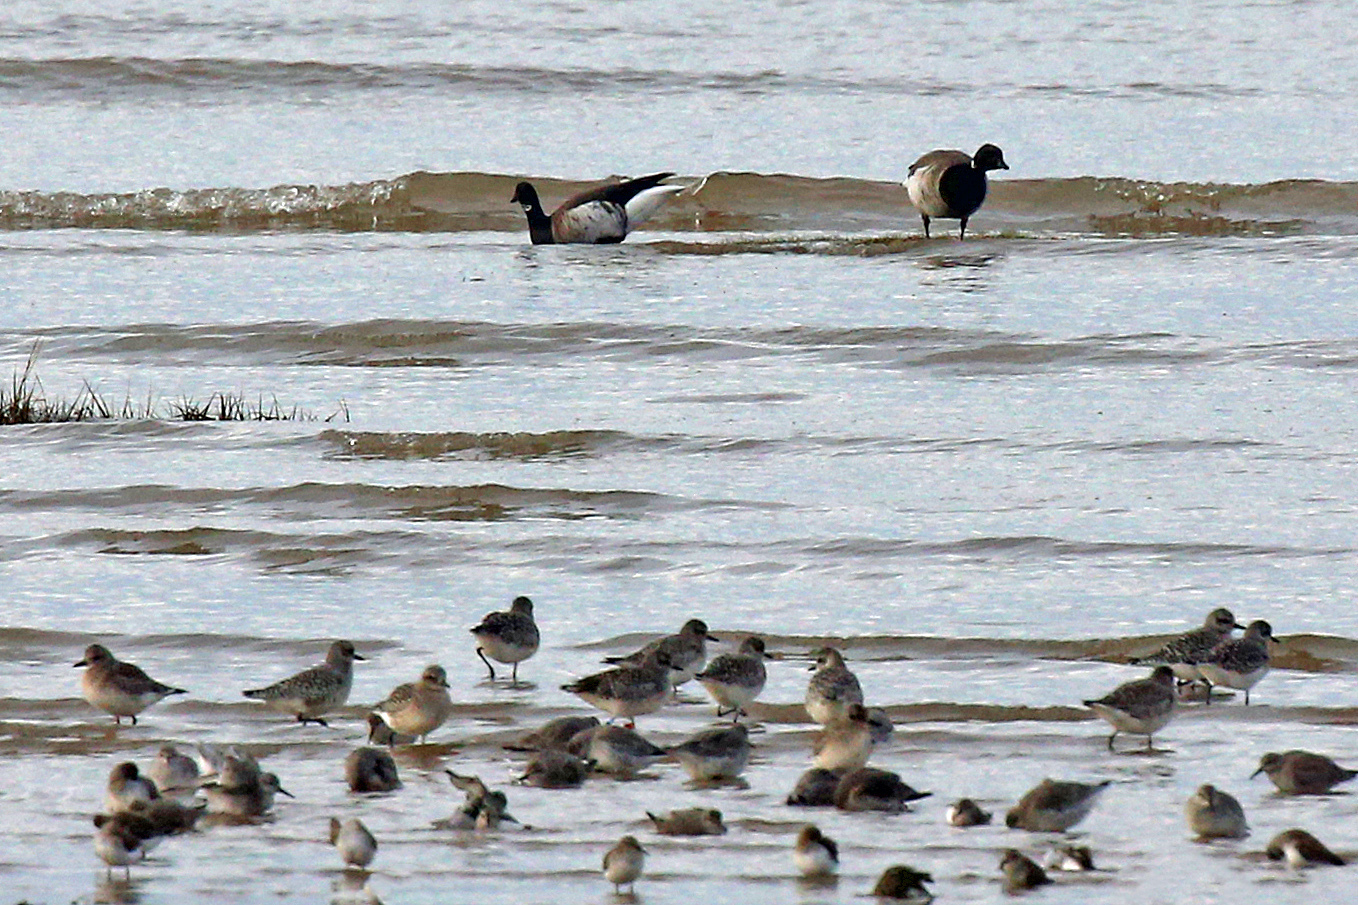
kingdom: Animalia
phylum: Chordata
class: Aves
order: Anseriformes
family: Anatidae
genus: Branta
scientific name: Branta bernicla
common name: Brant goose
